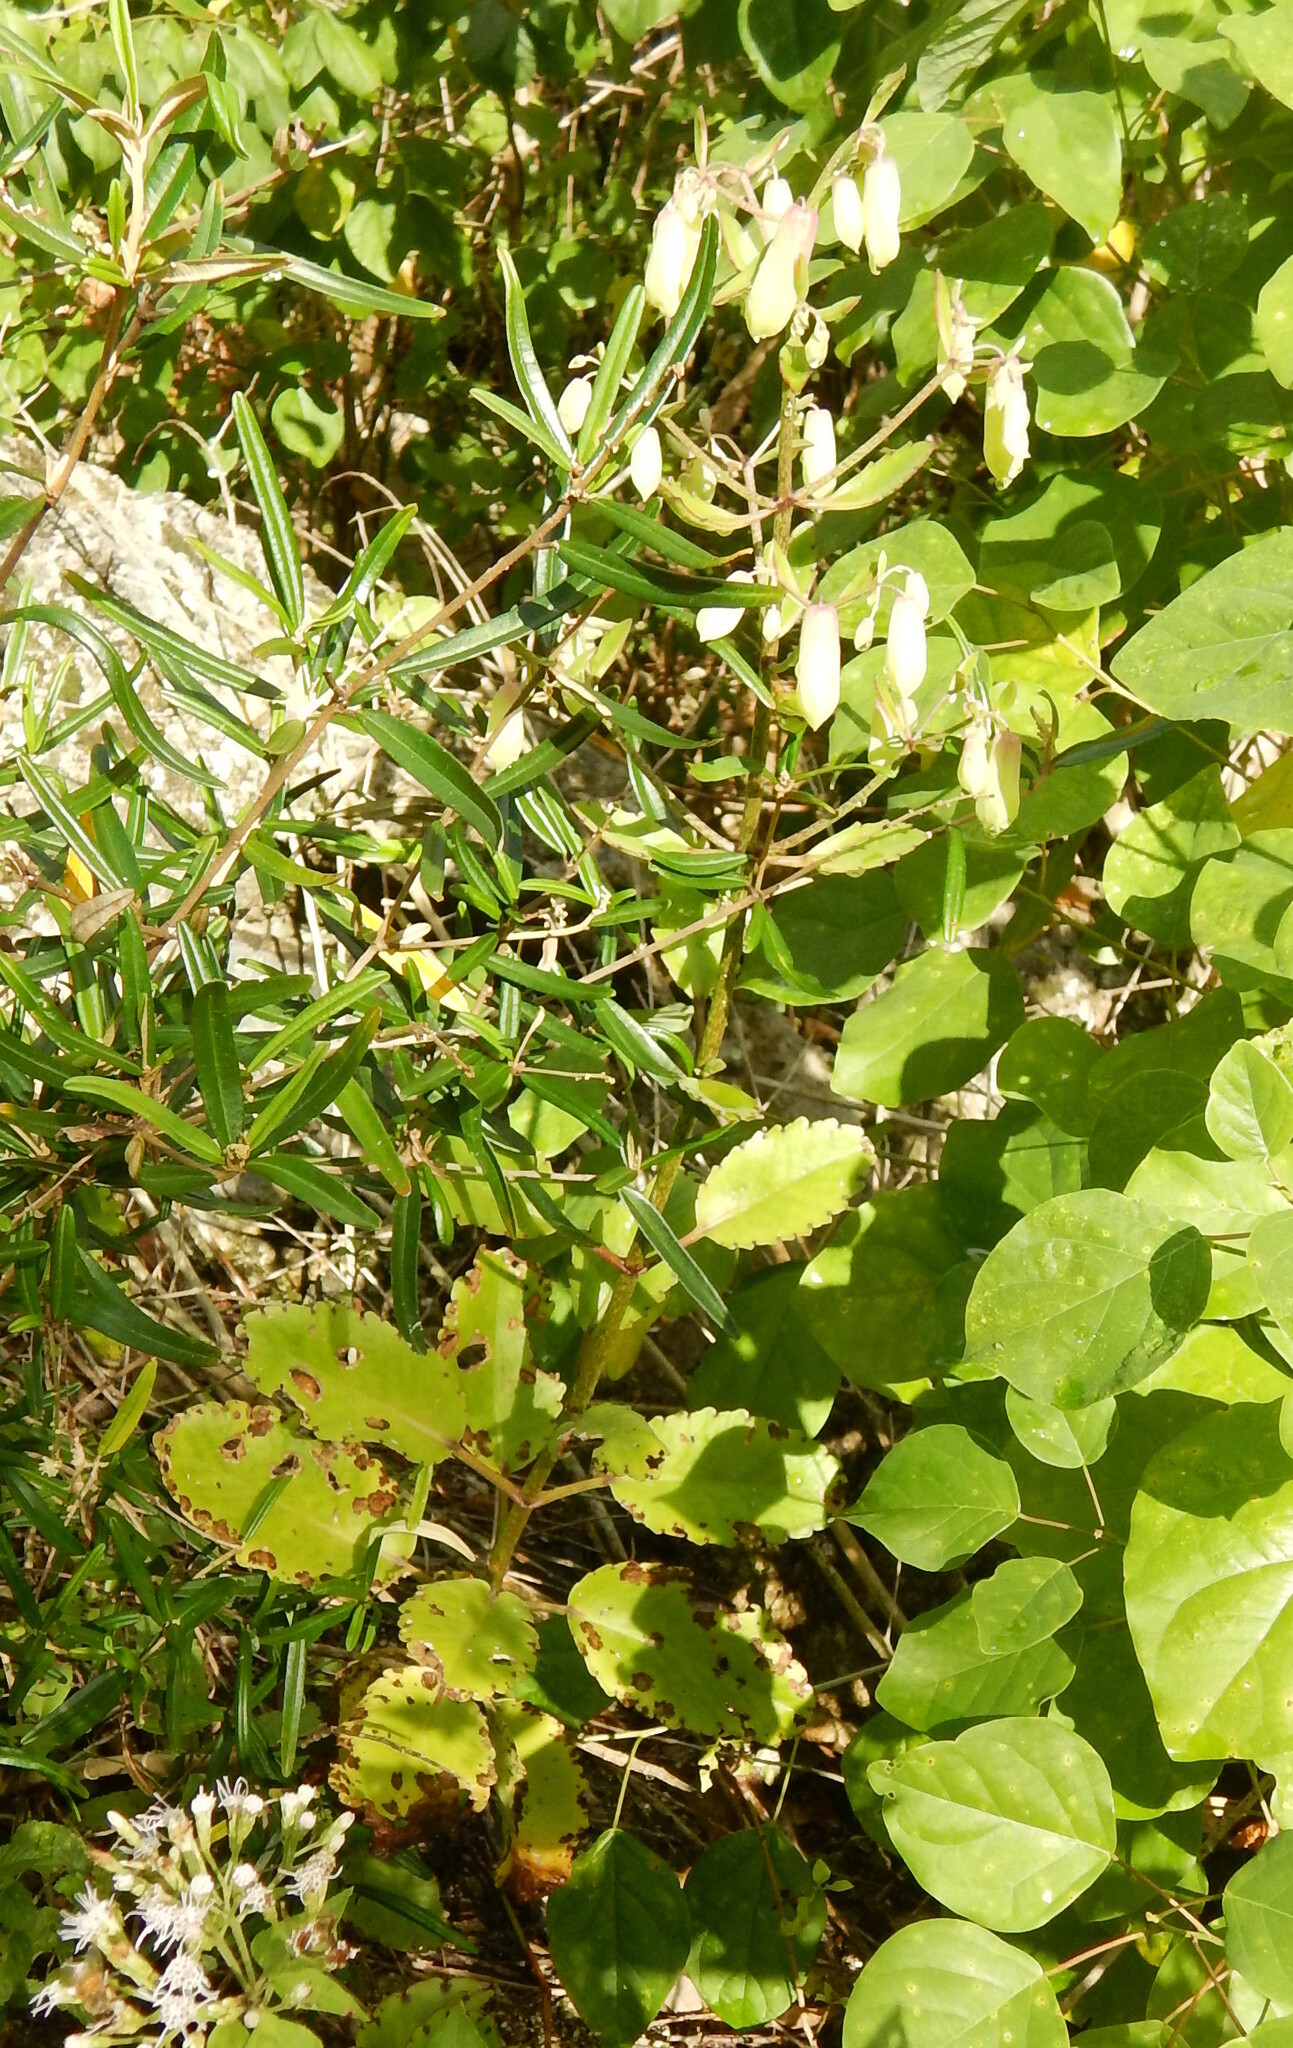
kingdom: Plantae
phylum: Tracheophyta
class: Magnoliopsida
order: Saxifragales
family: Crassulaceae
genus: Kalanchoe
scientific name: Kalanchoe pinnata
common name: Cathedral bells
